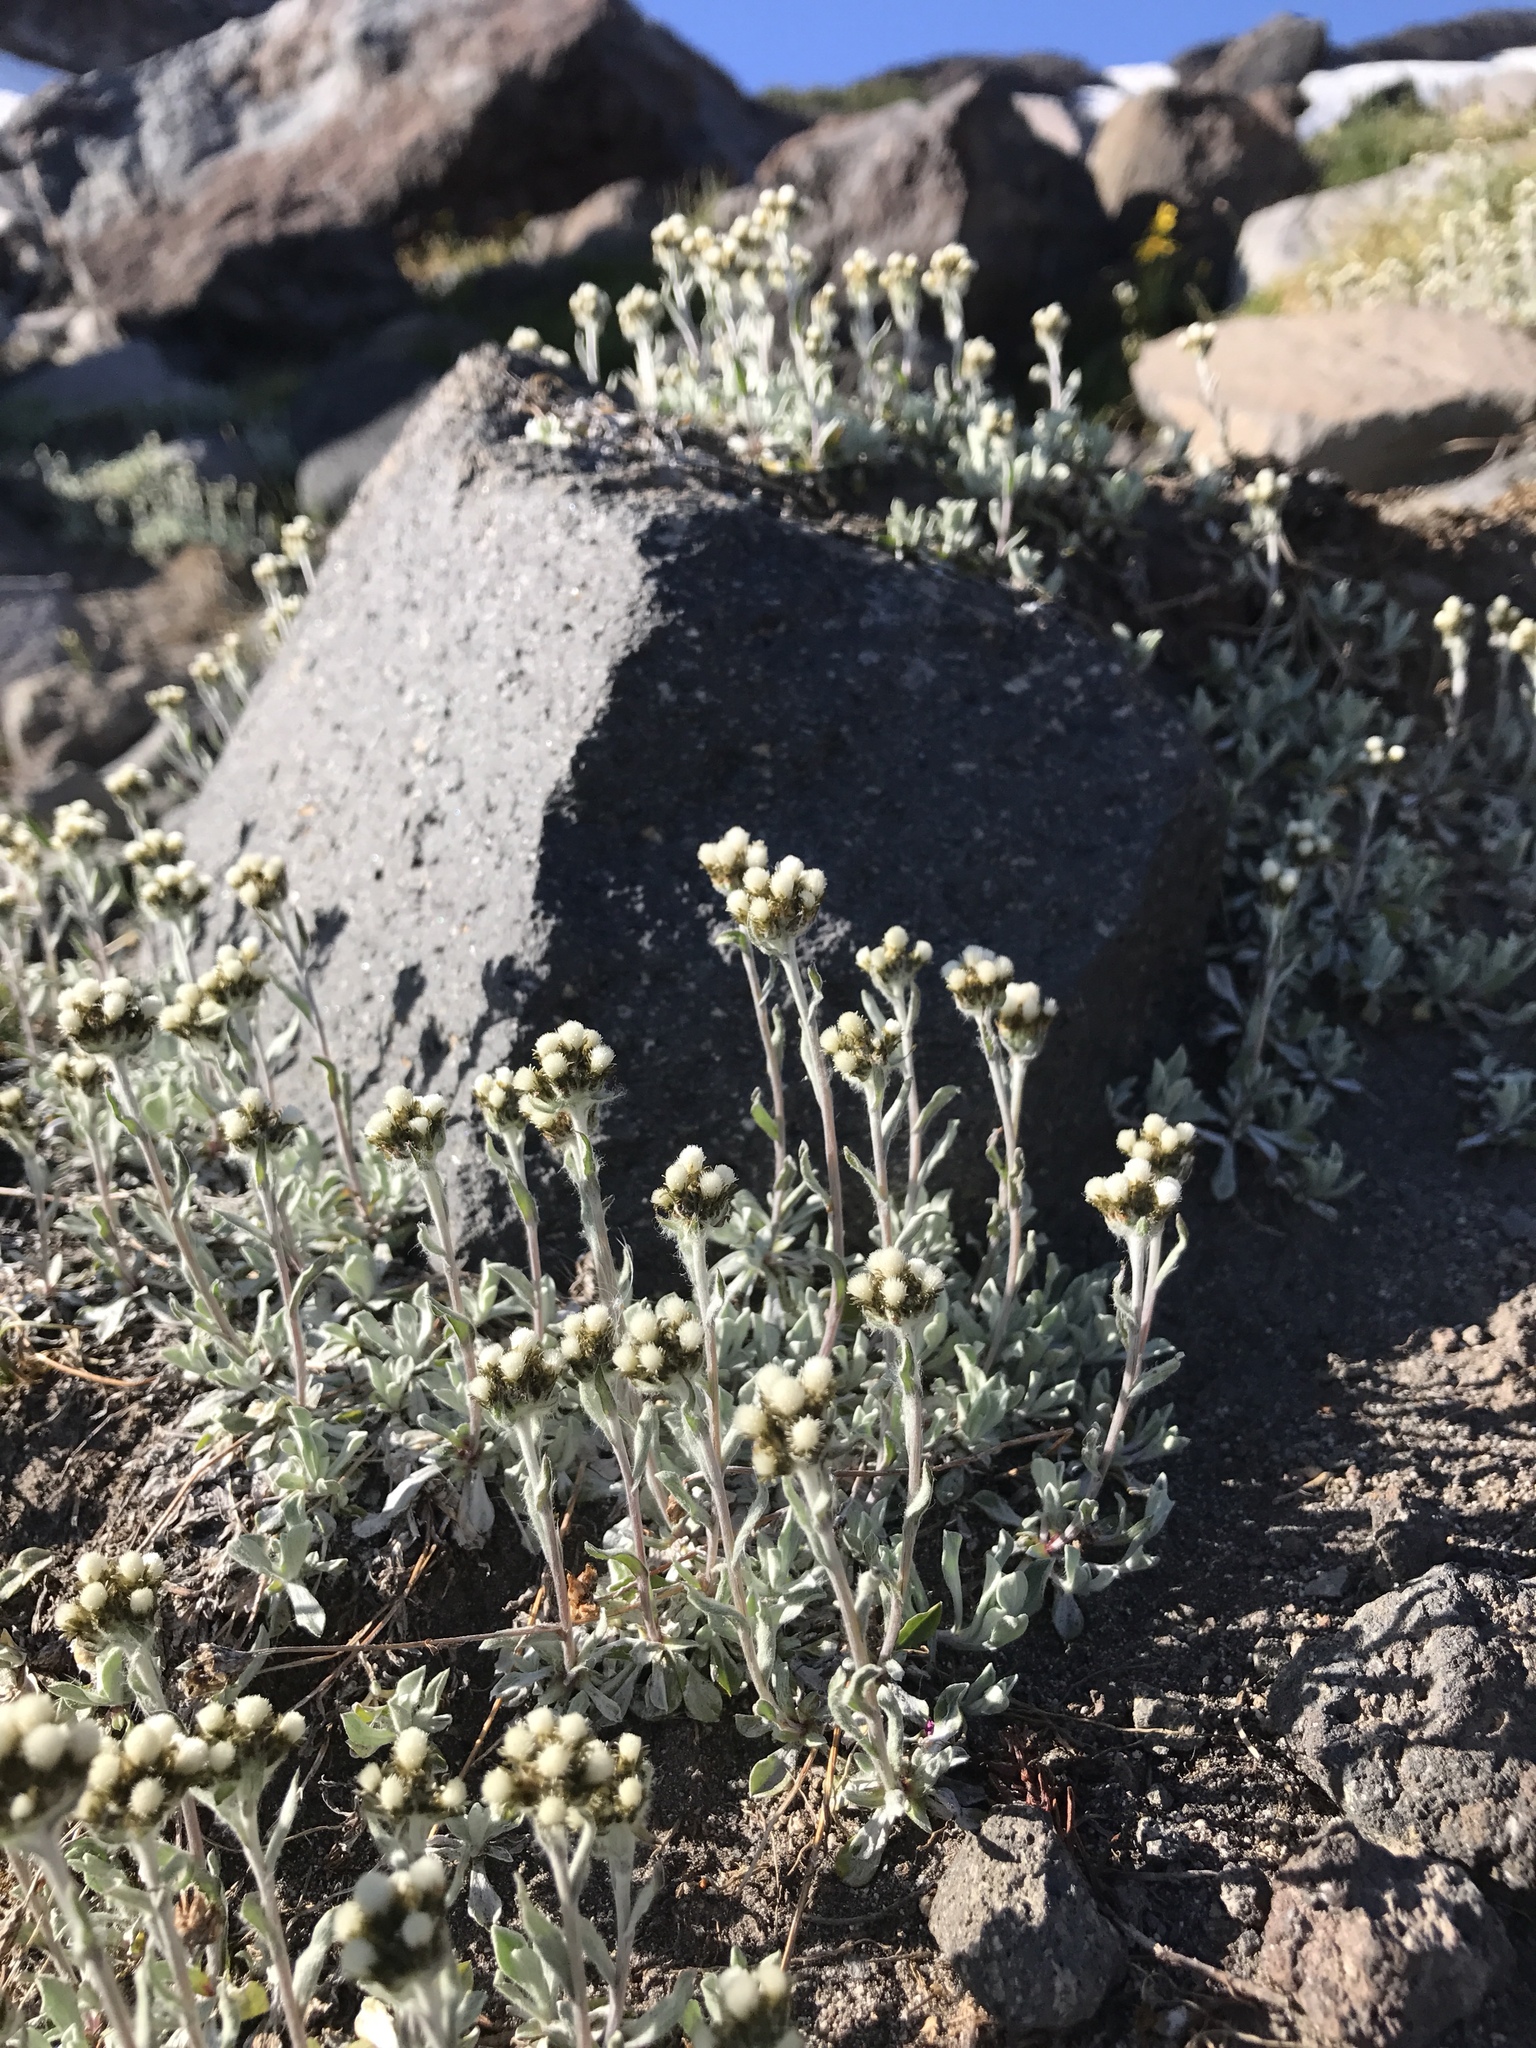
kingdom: Plantae
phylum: Tracheophyta
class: Magnoliopsida
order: Asterales
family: Asteraceae
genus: Antennaria
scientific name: Antennaria media
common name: Rocky mountain pussytoes
